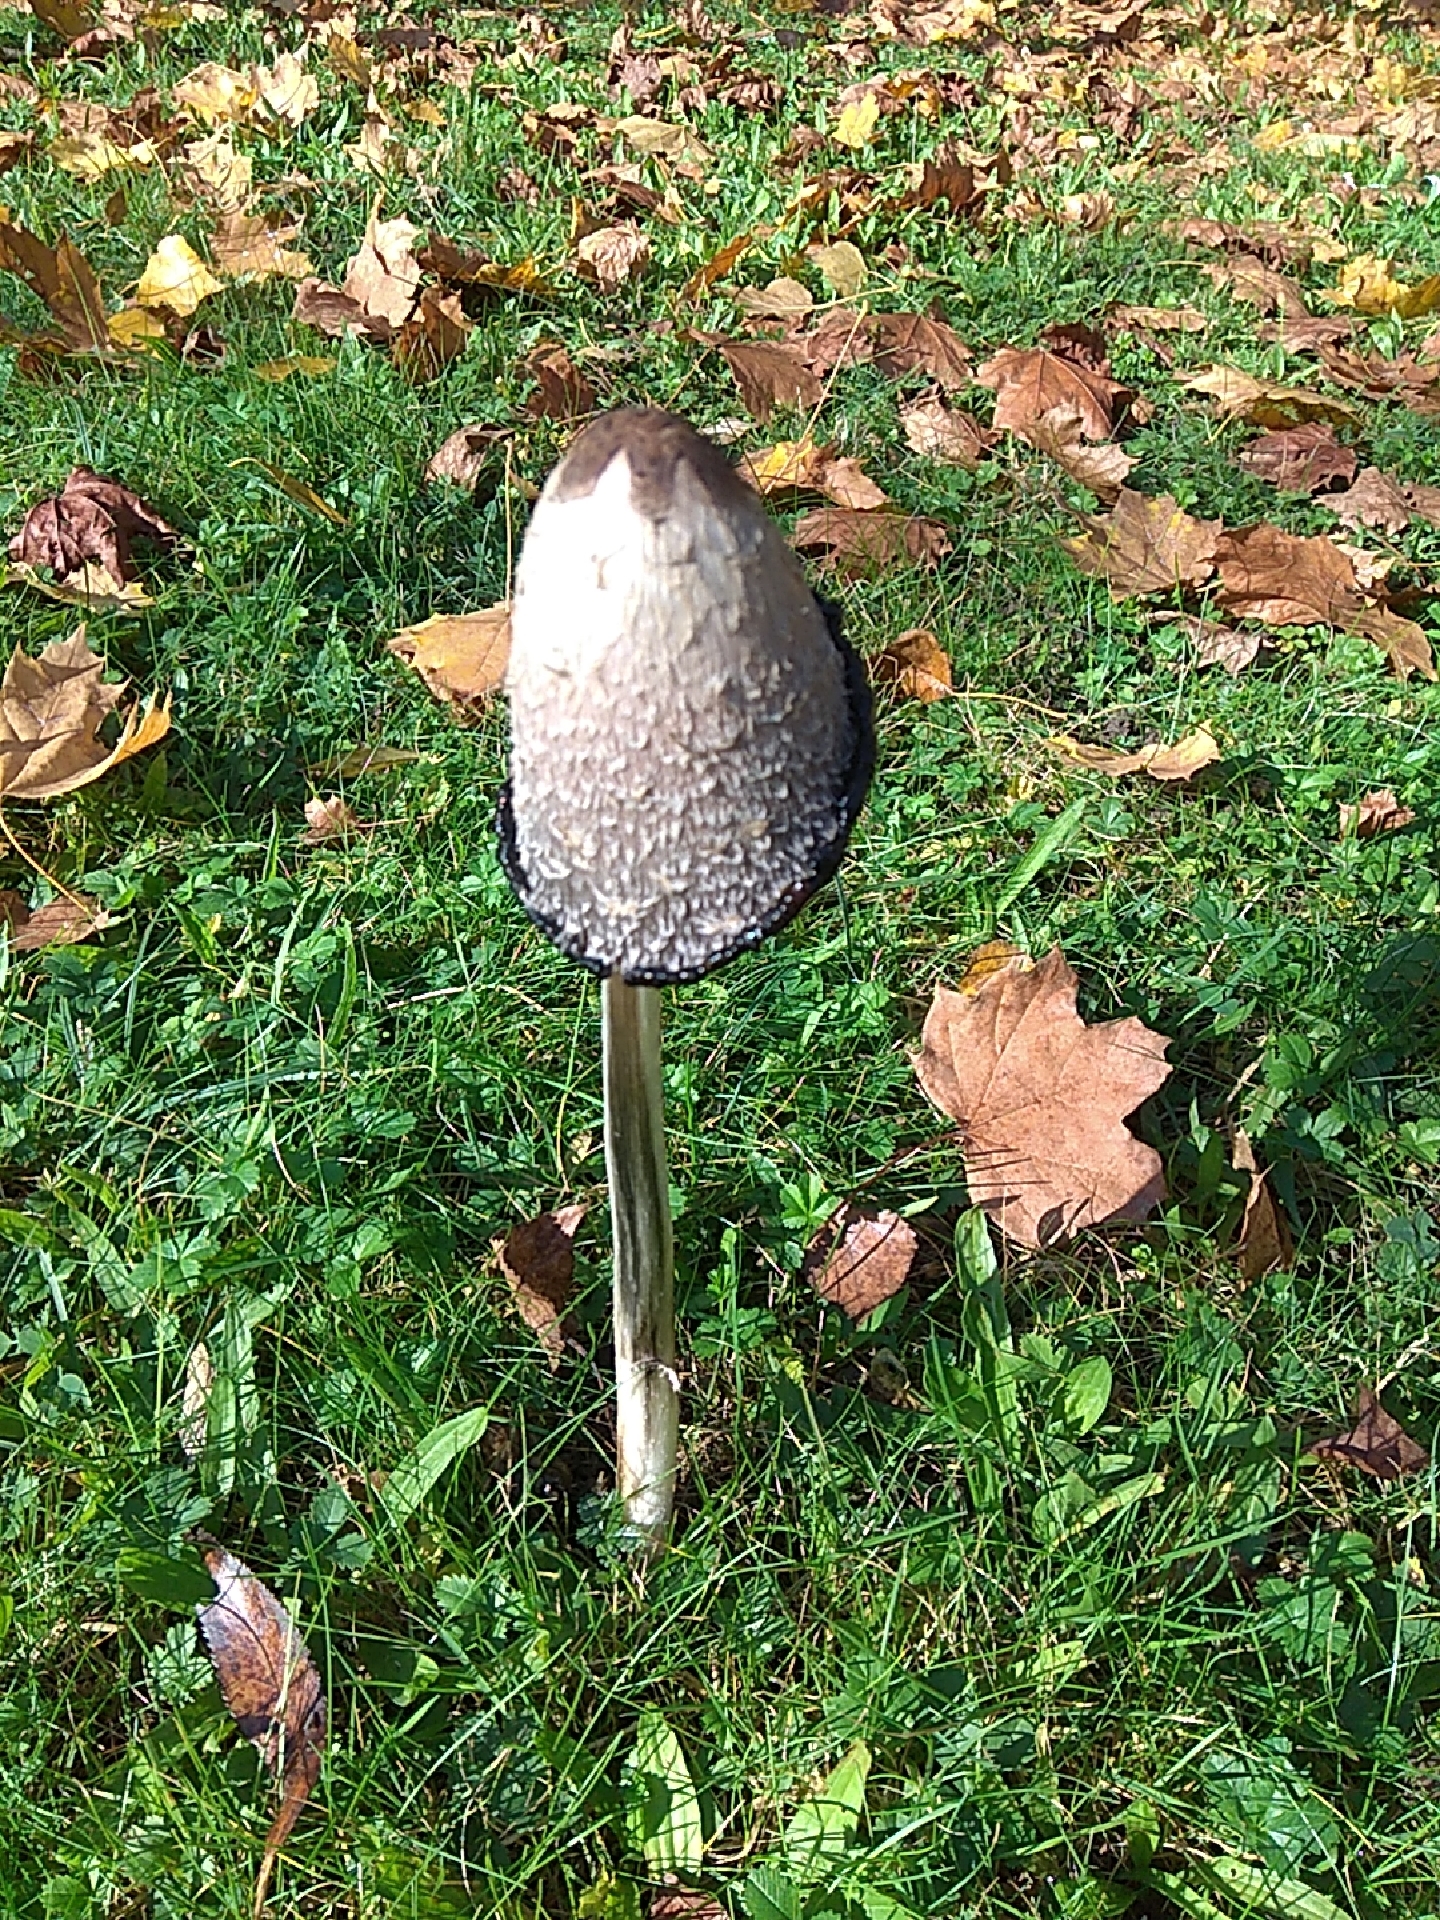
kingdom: Fungi
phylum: Basidiomycota
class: Agaricomycetes
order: Agaricales
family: Agaricaceae
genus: Coprinus
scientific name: Coprinus comatus
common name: Lawyer's wig
